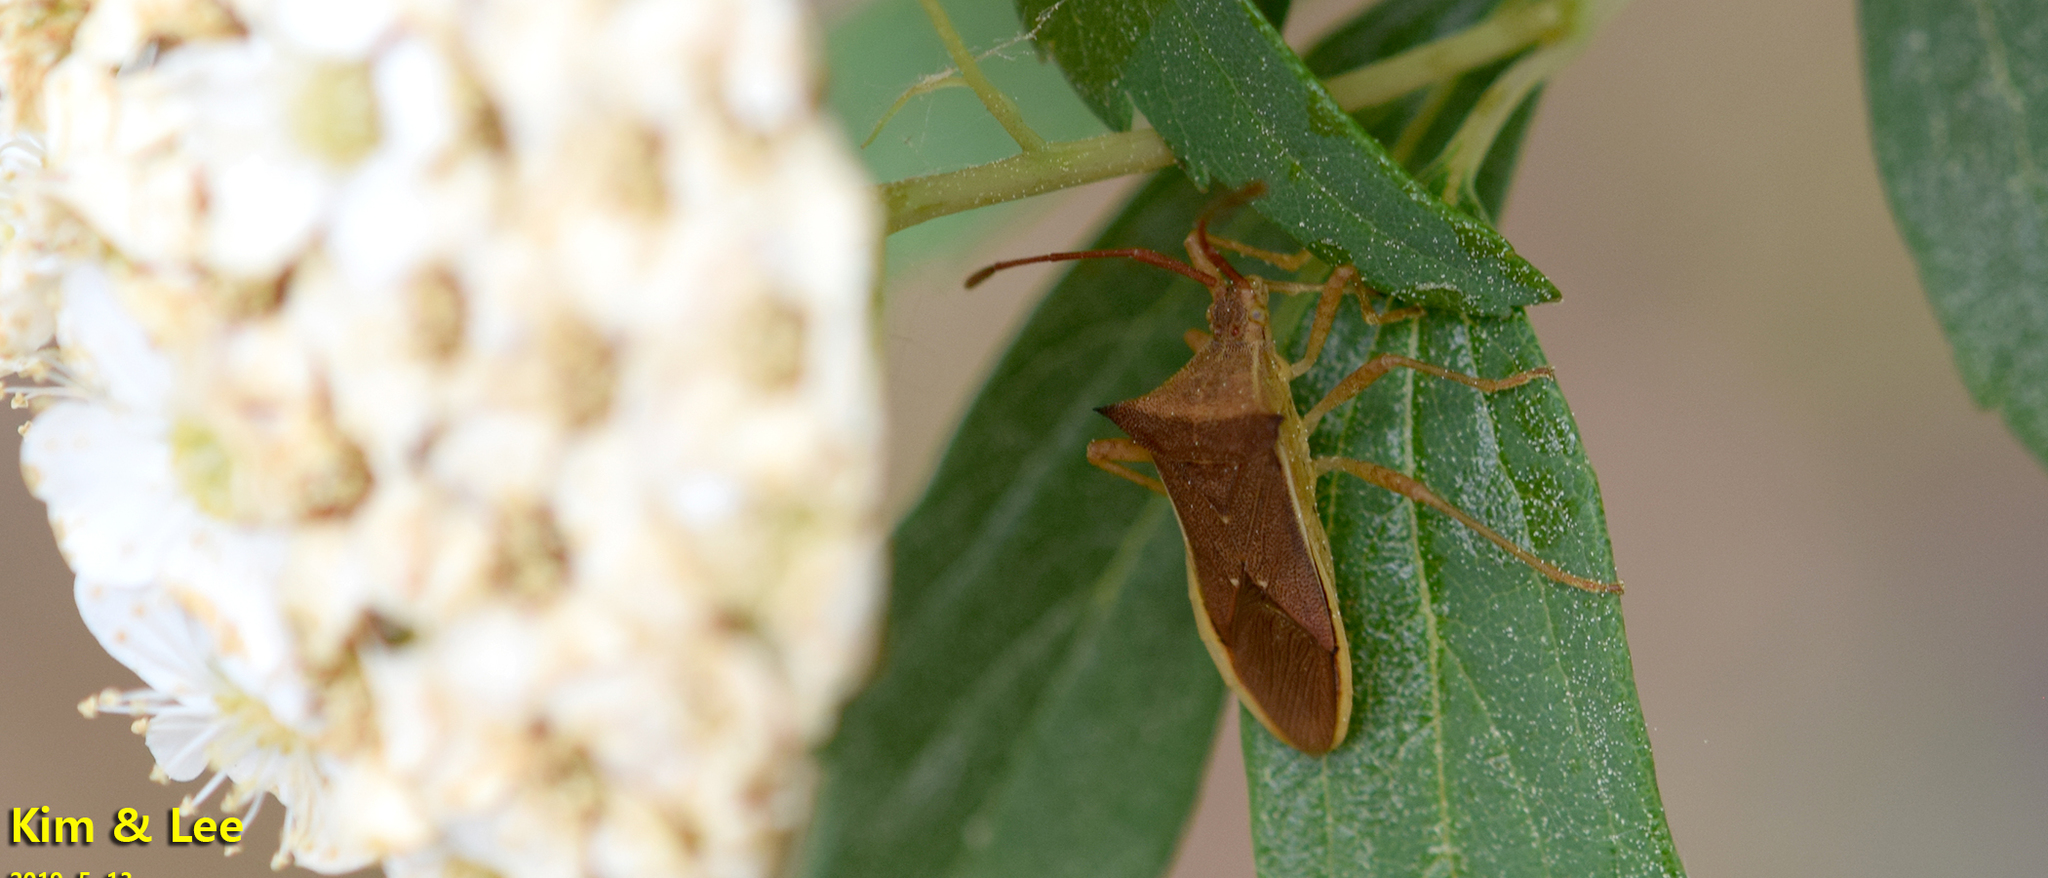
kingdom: Animalia
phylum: Arthropoda
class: Insecta
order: Hemiptera
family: Coreidae
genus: Cletus
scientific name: Cletus schmidti
